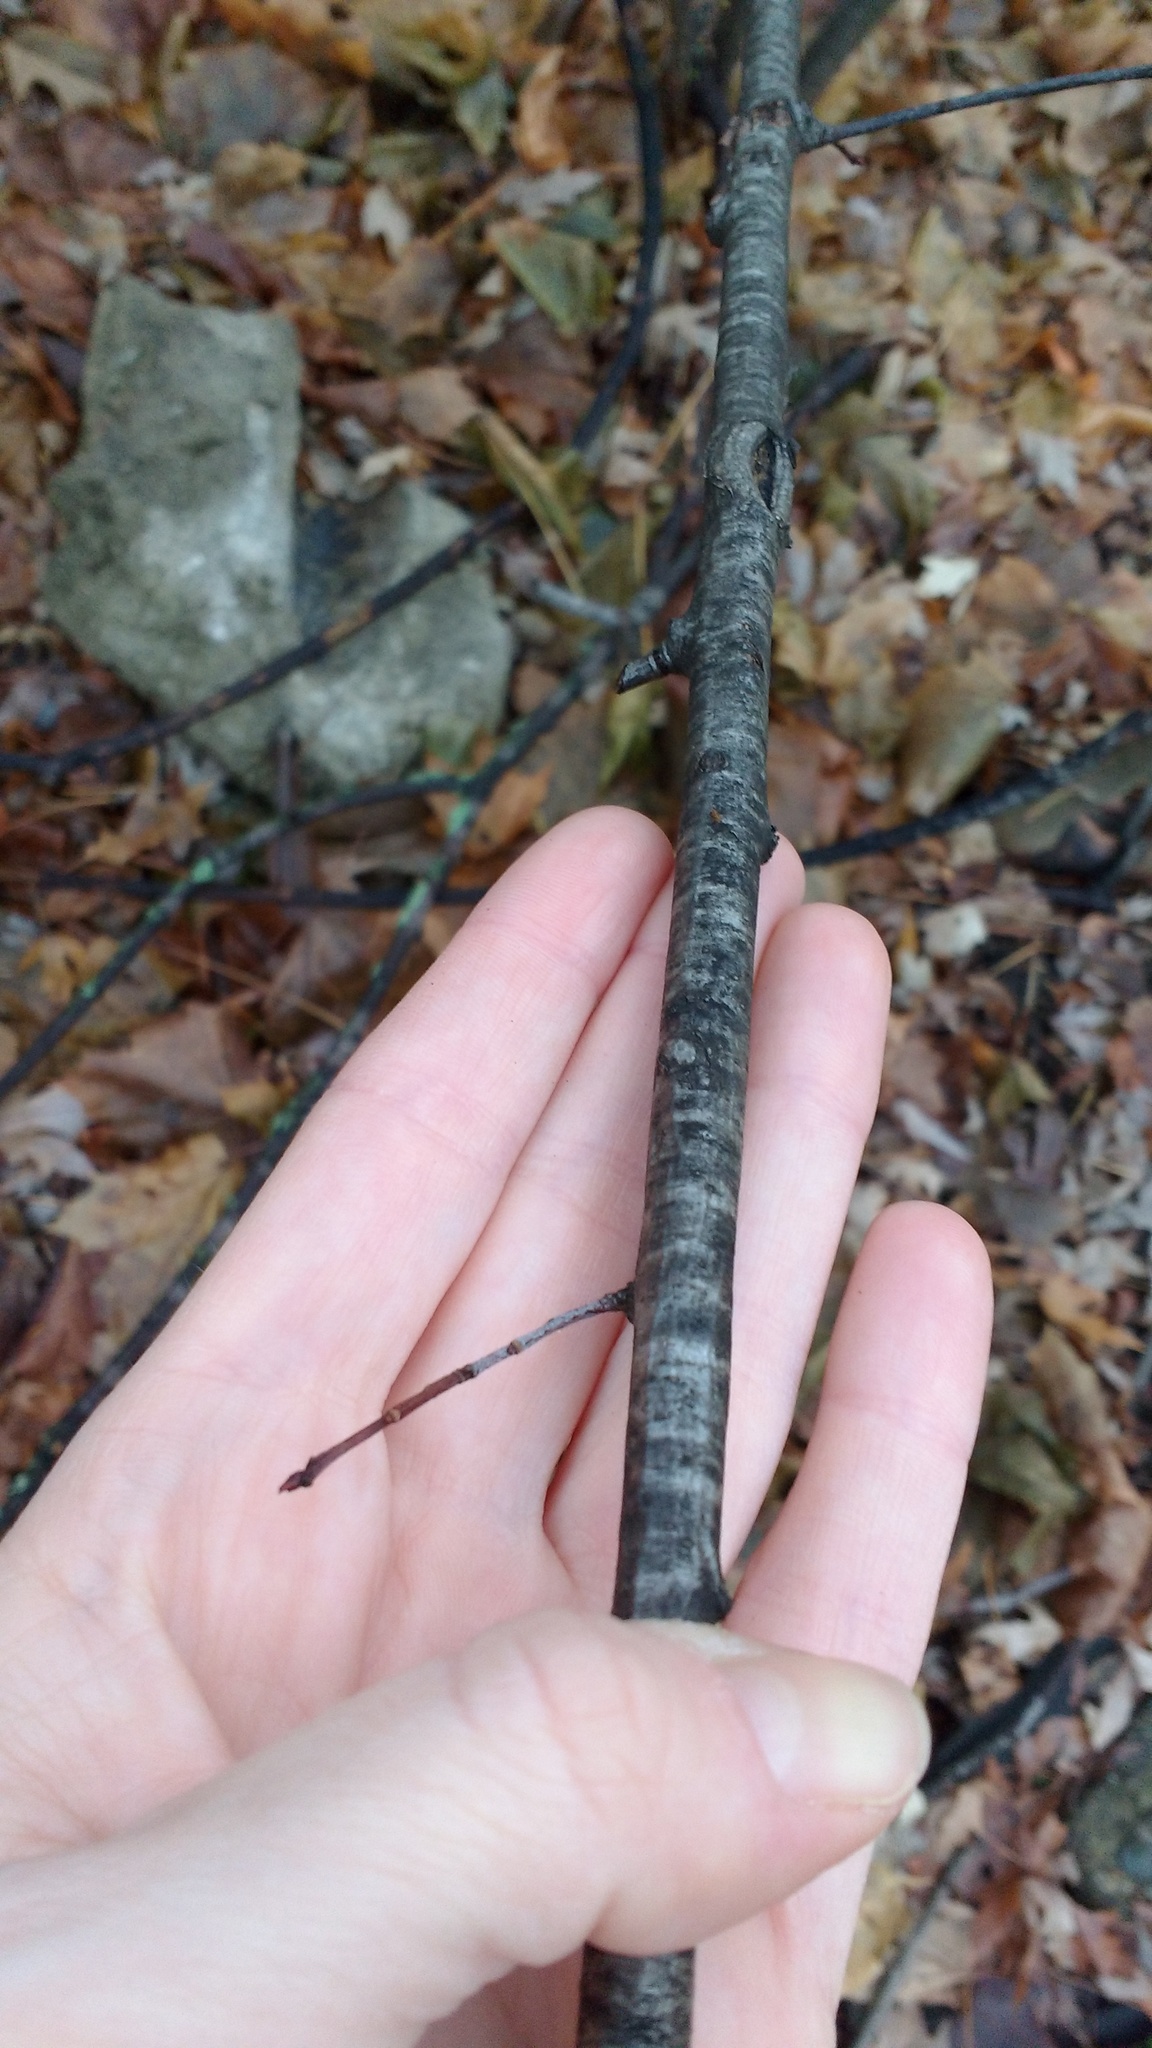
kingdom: Plantae
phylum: Tracheophyta
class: Magnoliopsida
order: Rosales
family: Rosaceae
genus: Prunus
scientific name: Prunus serotina
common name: Black cherry
